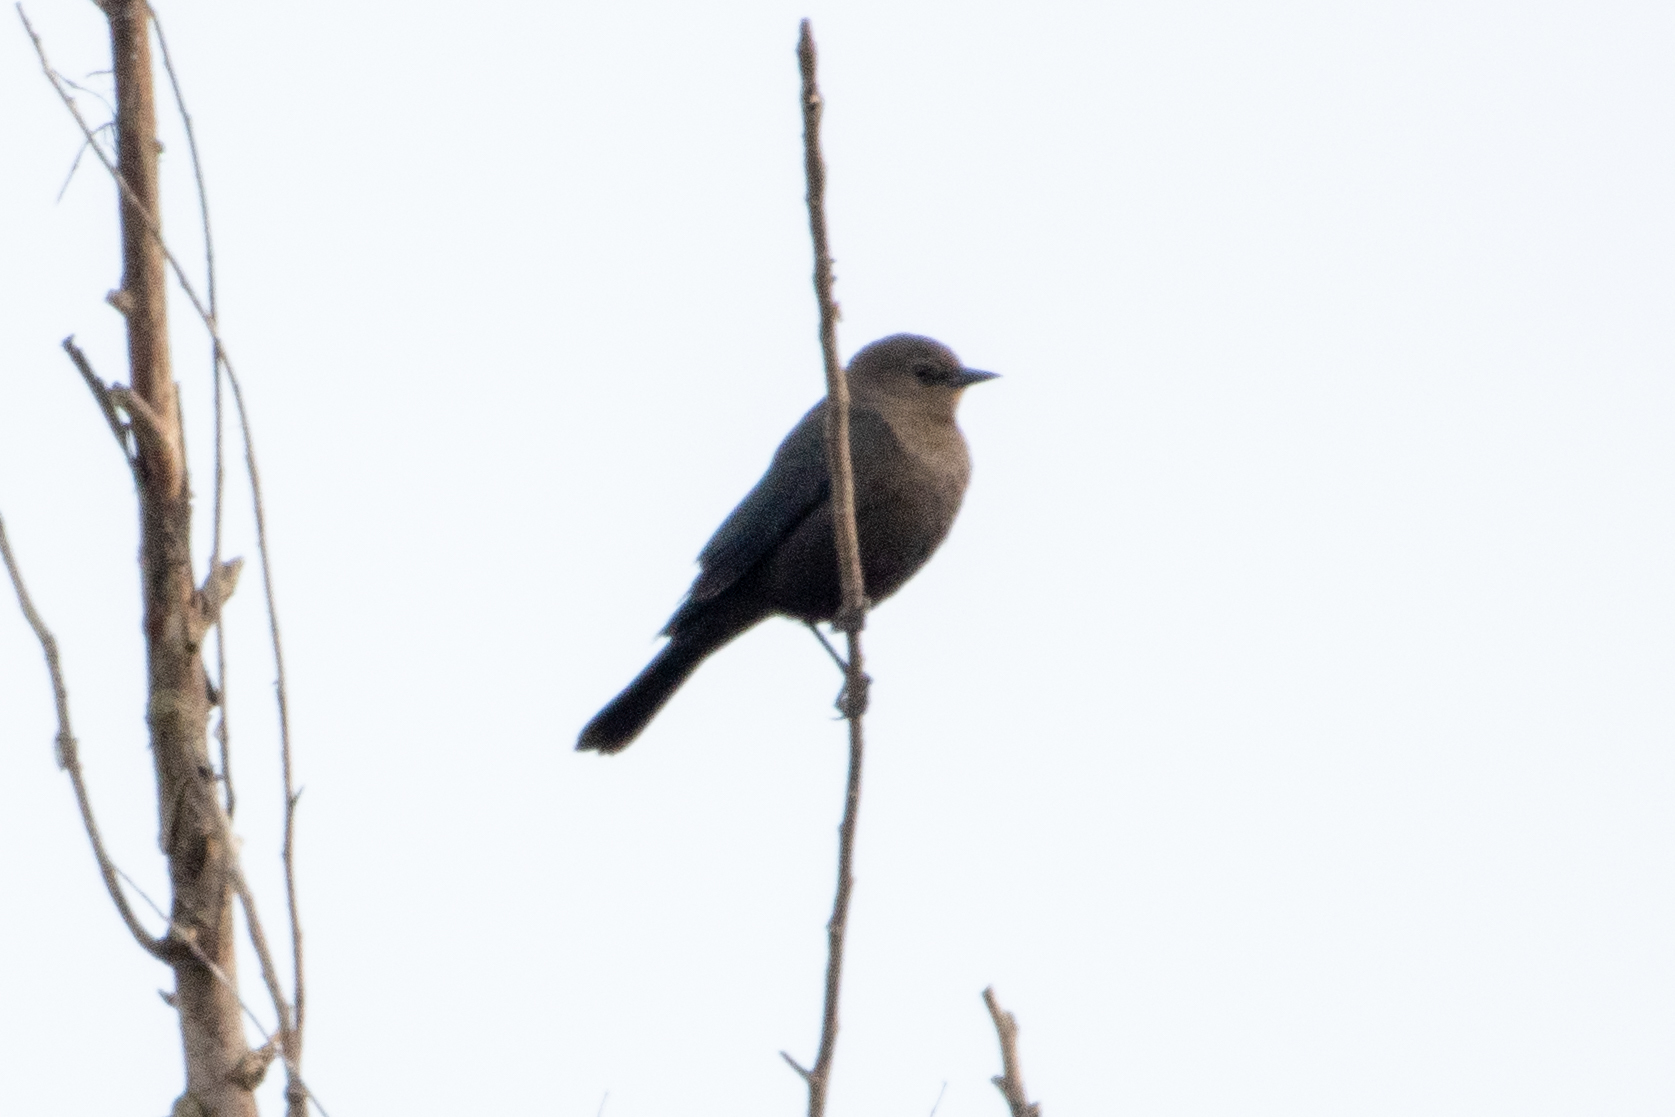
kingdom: Animalia
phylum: Chordata
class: Aves
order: Passeriformes
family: Icteridae
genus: Euphagus
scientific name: Euphagus cyanocephalus
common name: Brewer's blackbird
